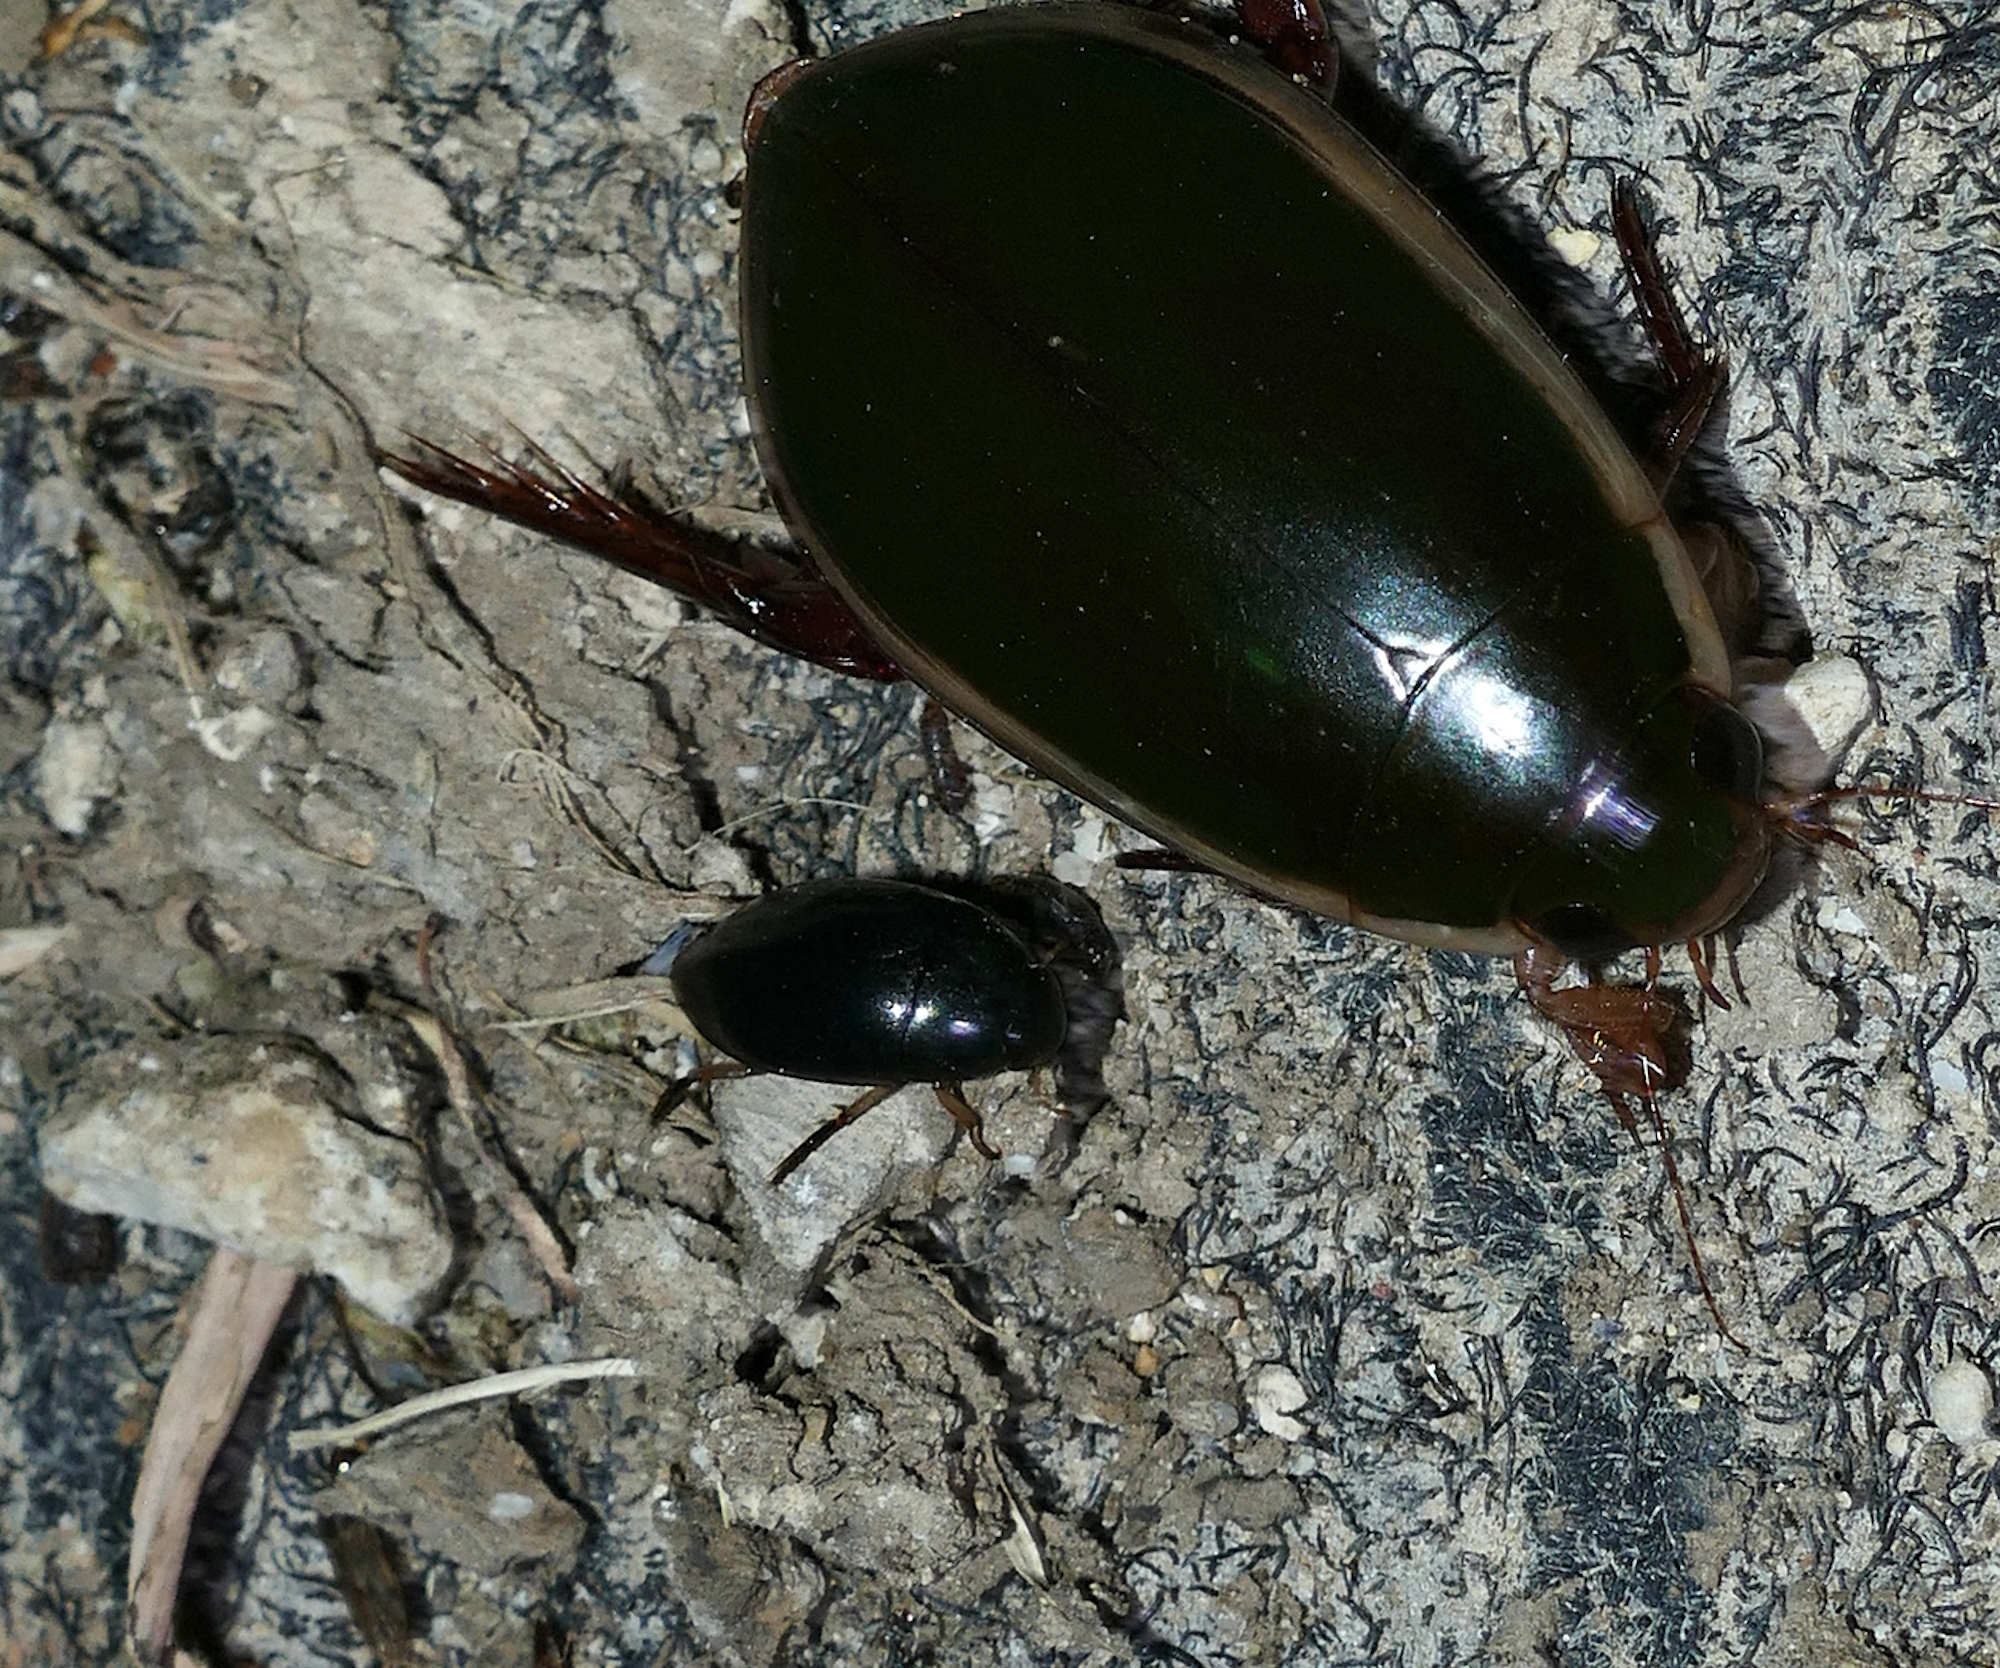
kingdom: Animalia
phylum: Arthropoda
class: Insecta
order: Coleoptera
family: Hydrophilidae
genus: Tropisternus
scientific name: Tropisternus quadristriatus
